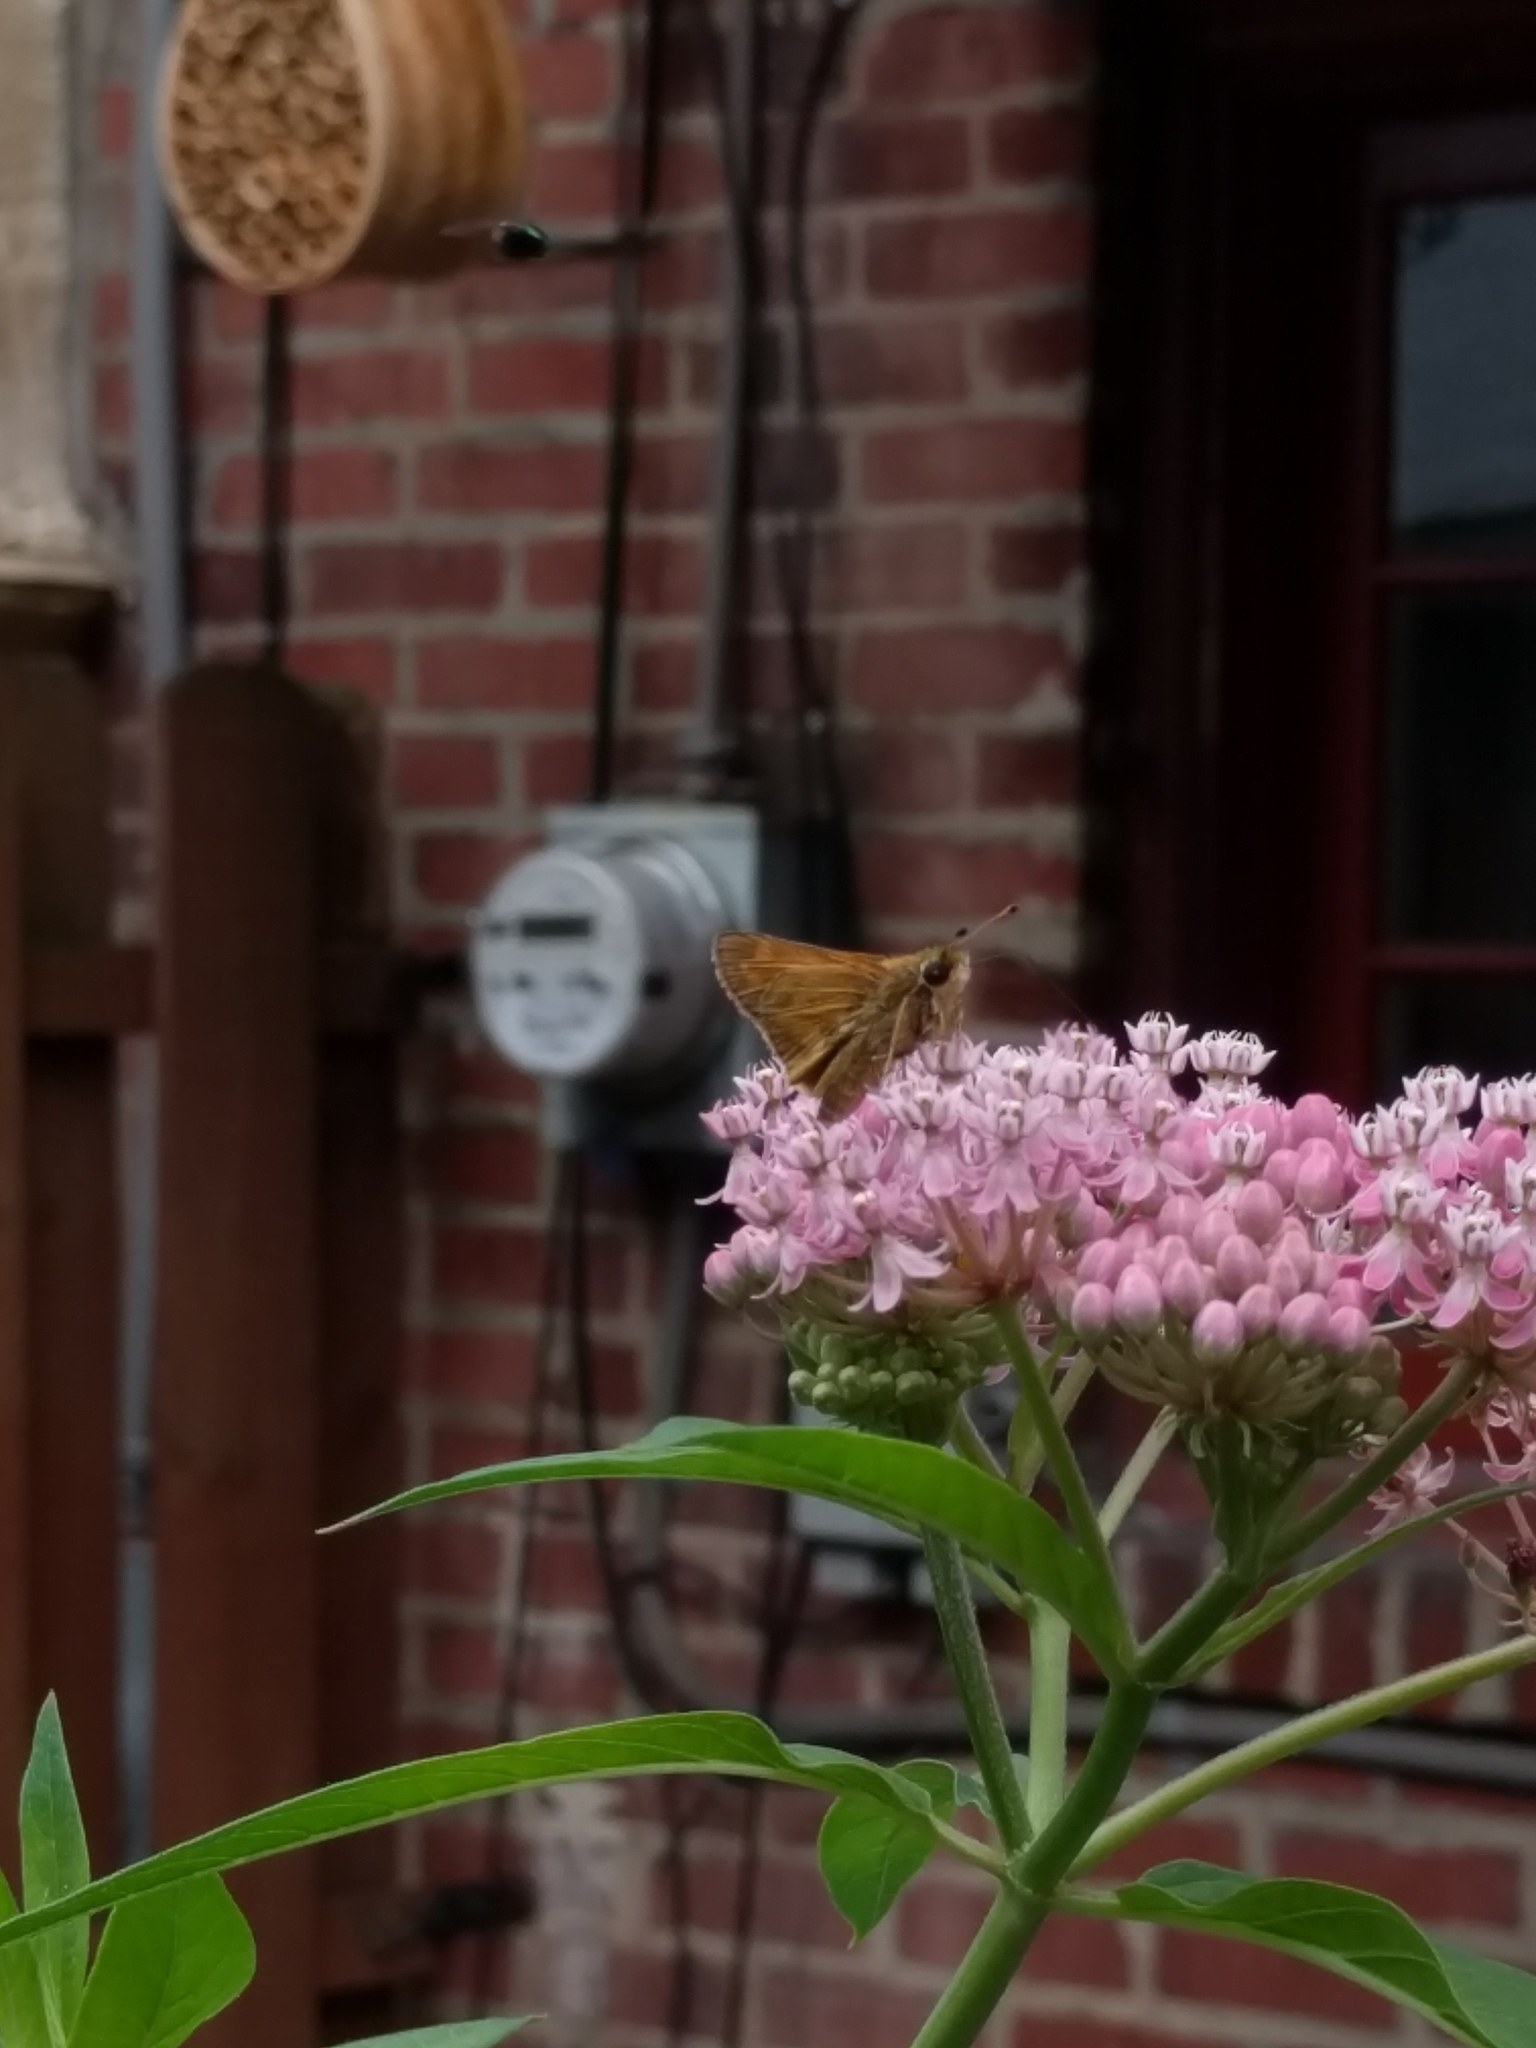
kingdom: Animalia
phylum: Arthropoda
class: Insecta
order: Lepidoptera
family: Hesperiidae
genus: Atalopedes
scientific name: Atalopedes
